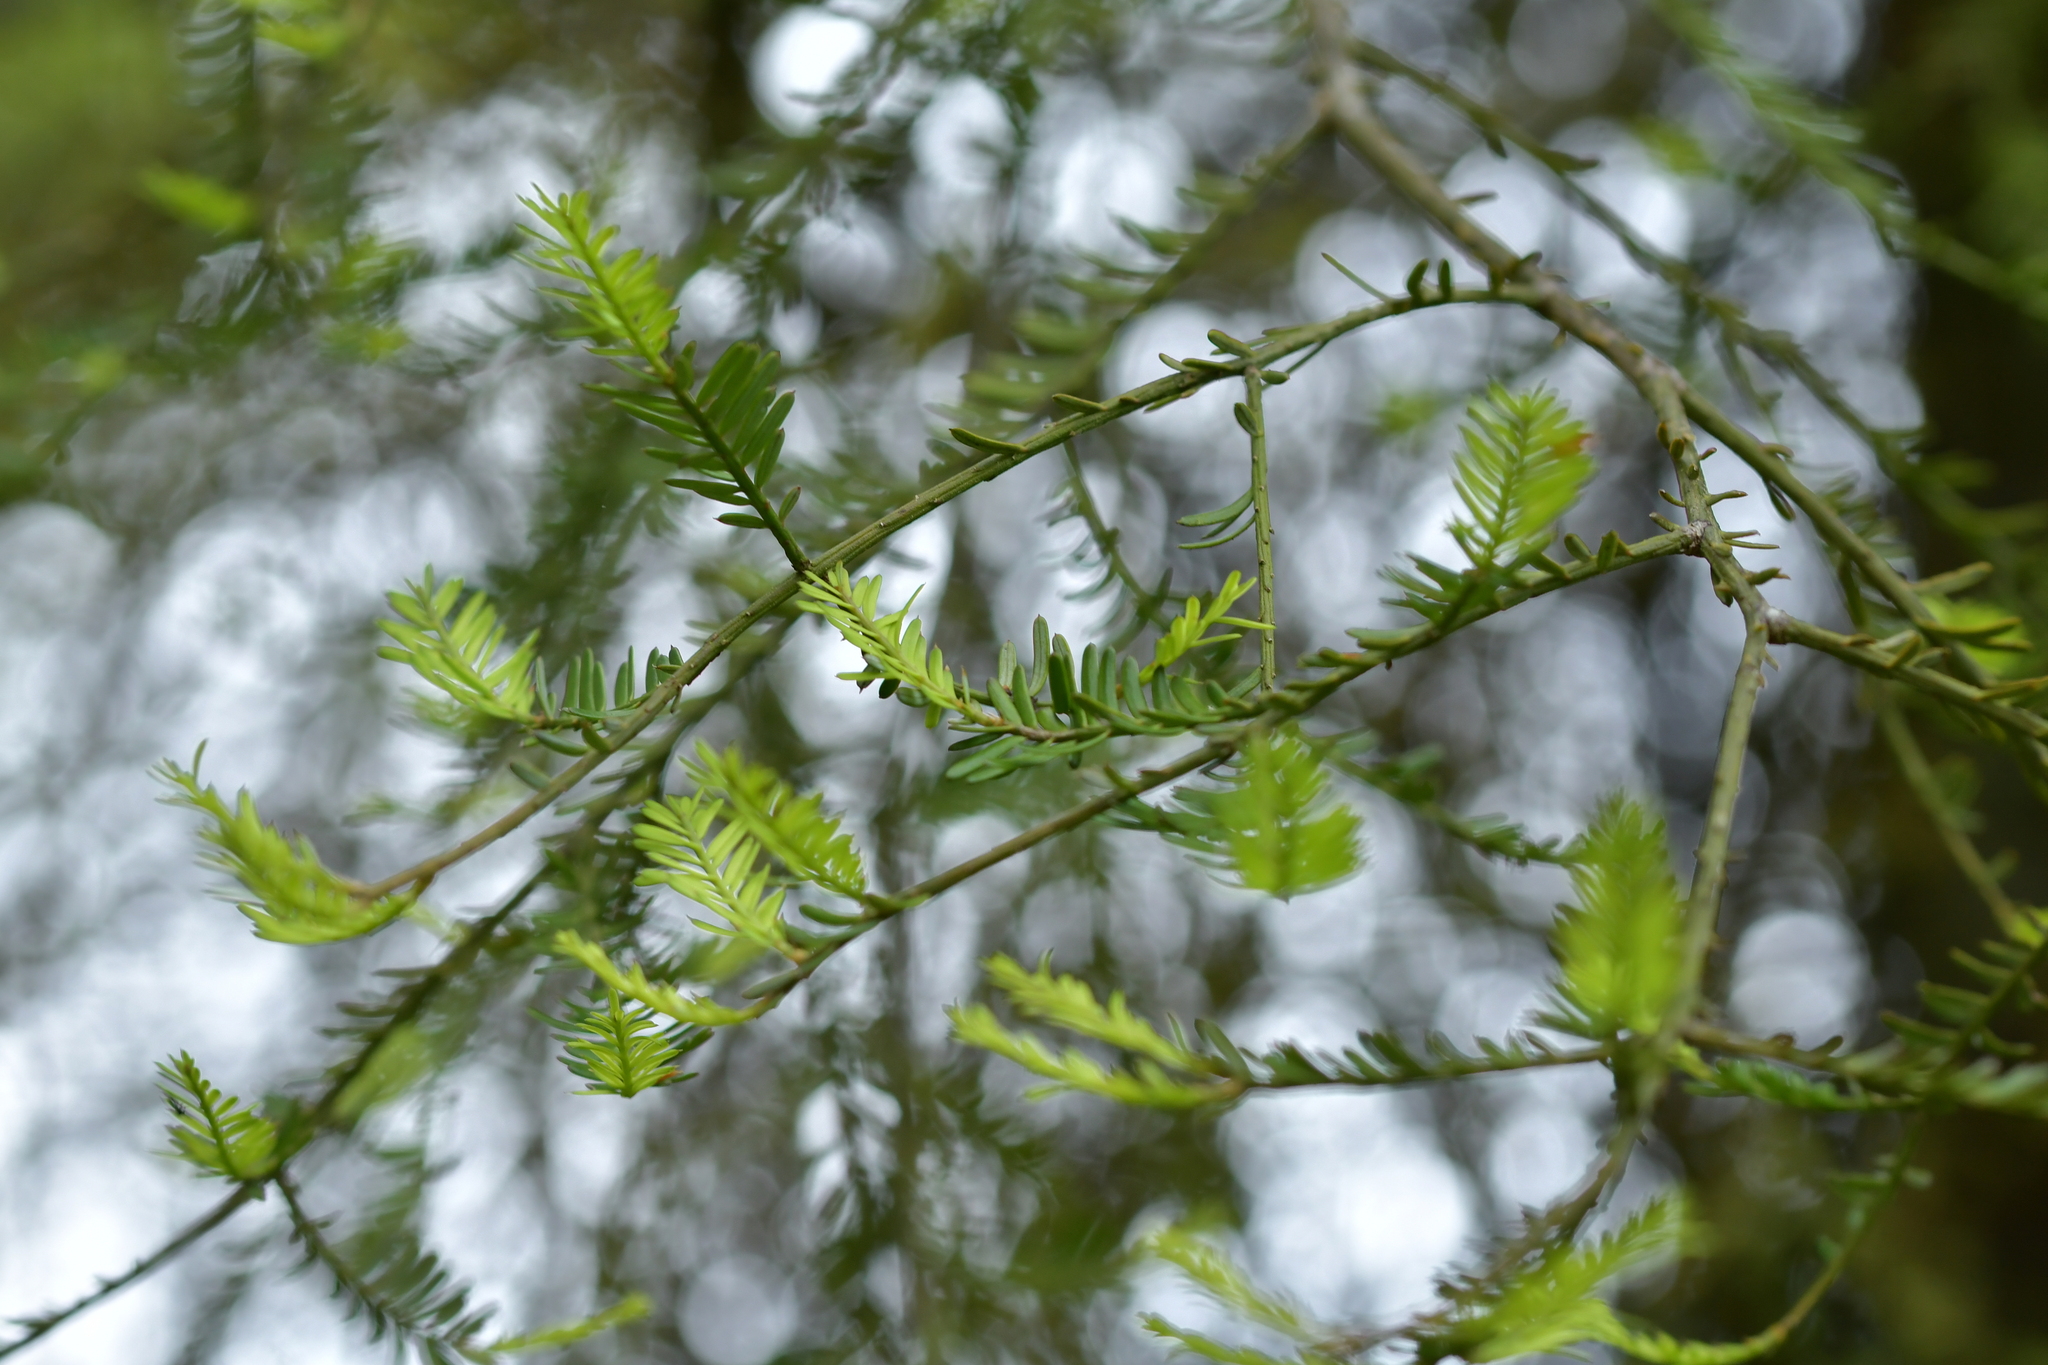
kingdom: Plantae
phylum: Tracheophyta
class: Pinopsida
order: Pinales
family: Podocarpaceae
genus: Prumnopitys
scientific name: Prumnopitys taxifolia
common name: Matai
